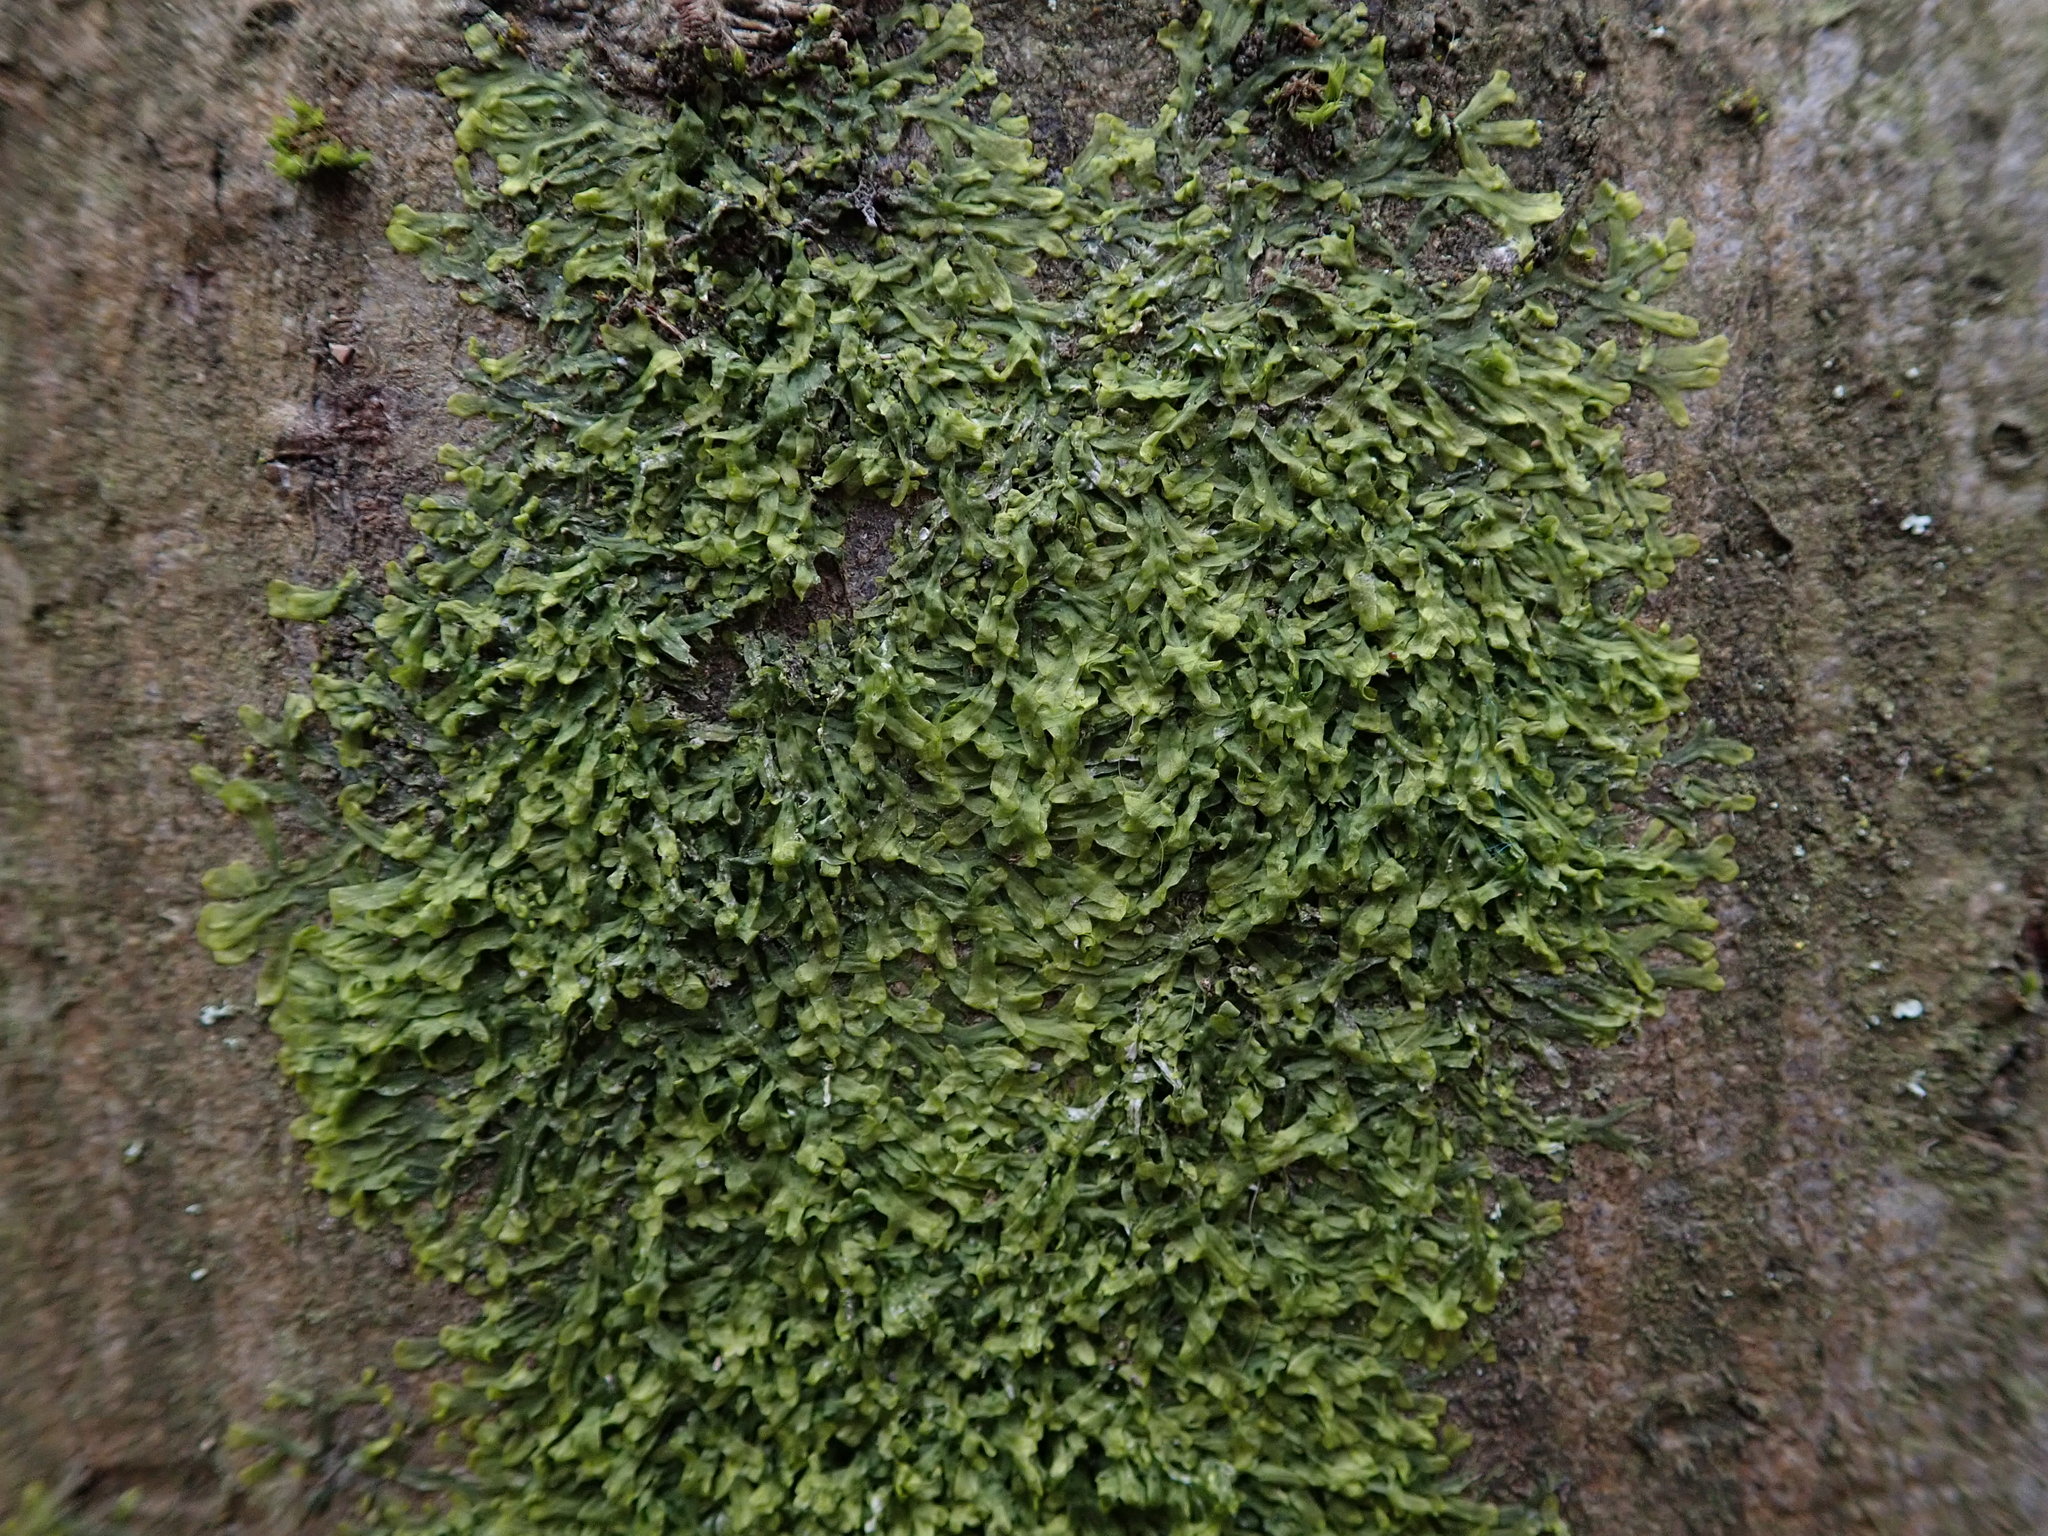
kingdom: Plantae
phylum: Marchantiophyta
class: Jungermanniopsida
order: Metzgeriales
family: Metzgeriaceae
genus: Metzgeria
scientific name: Metzgeria furcata
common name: Forked veilwort
